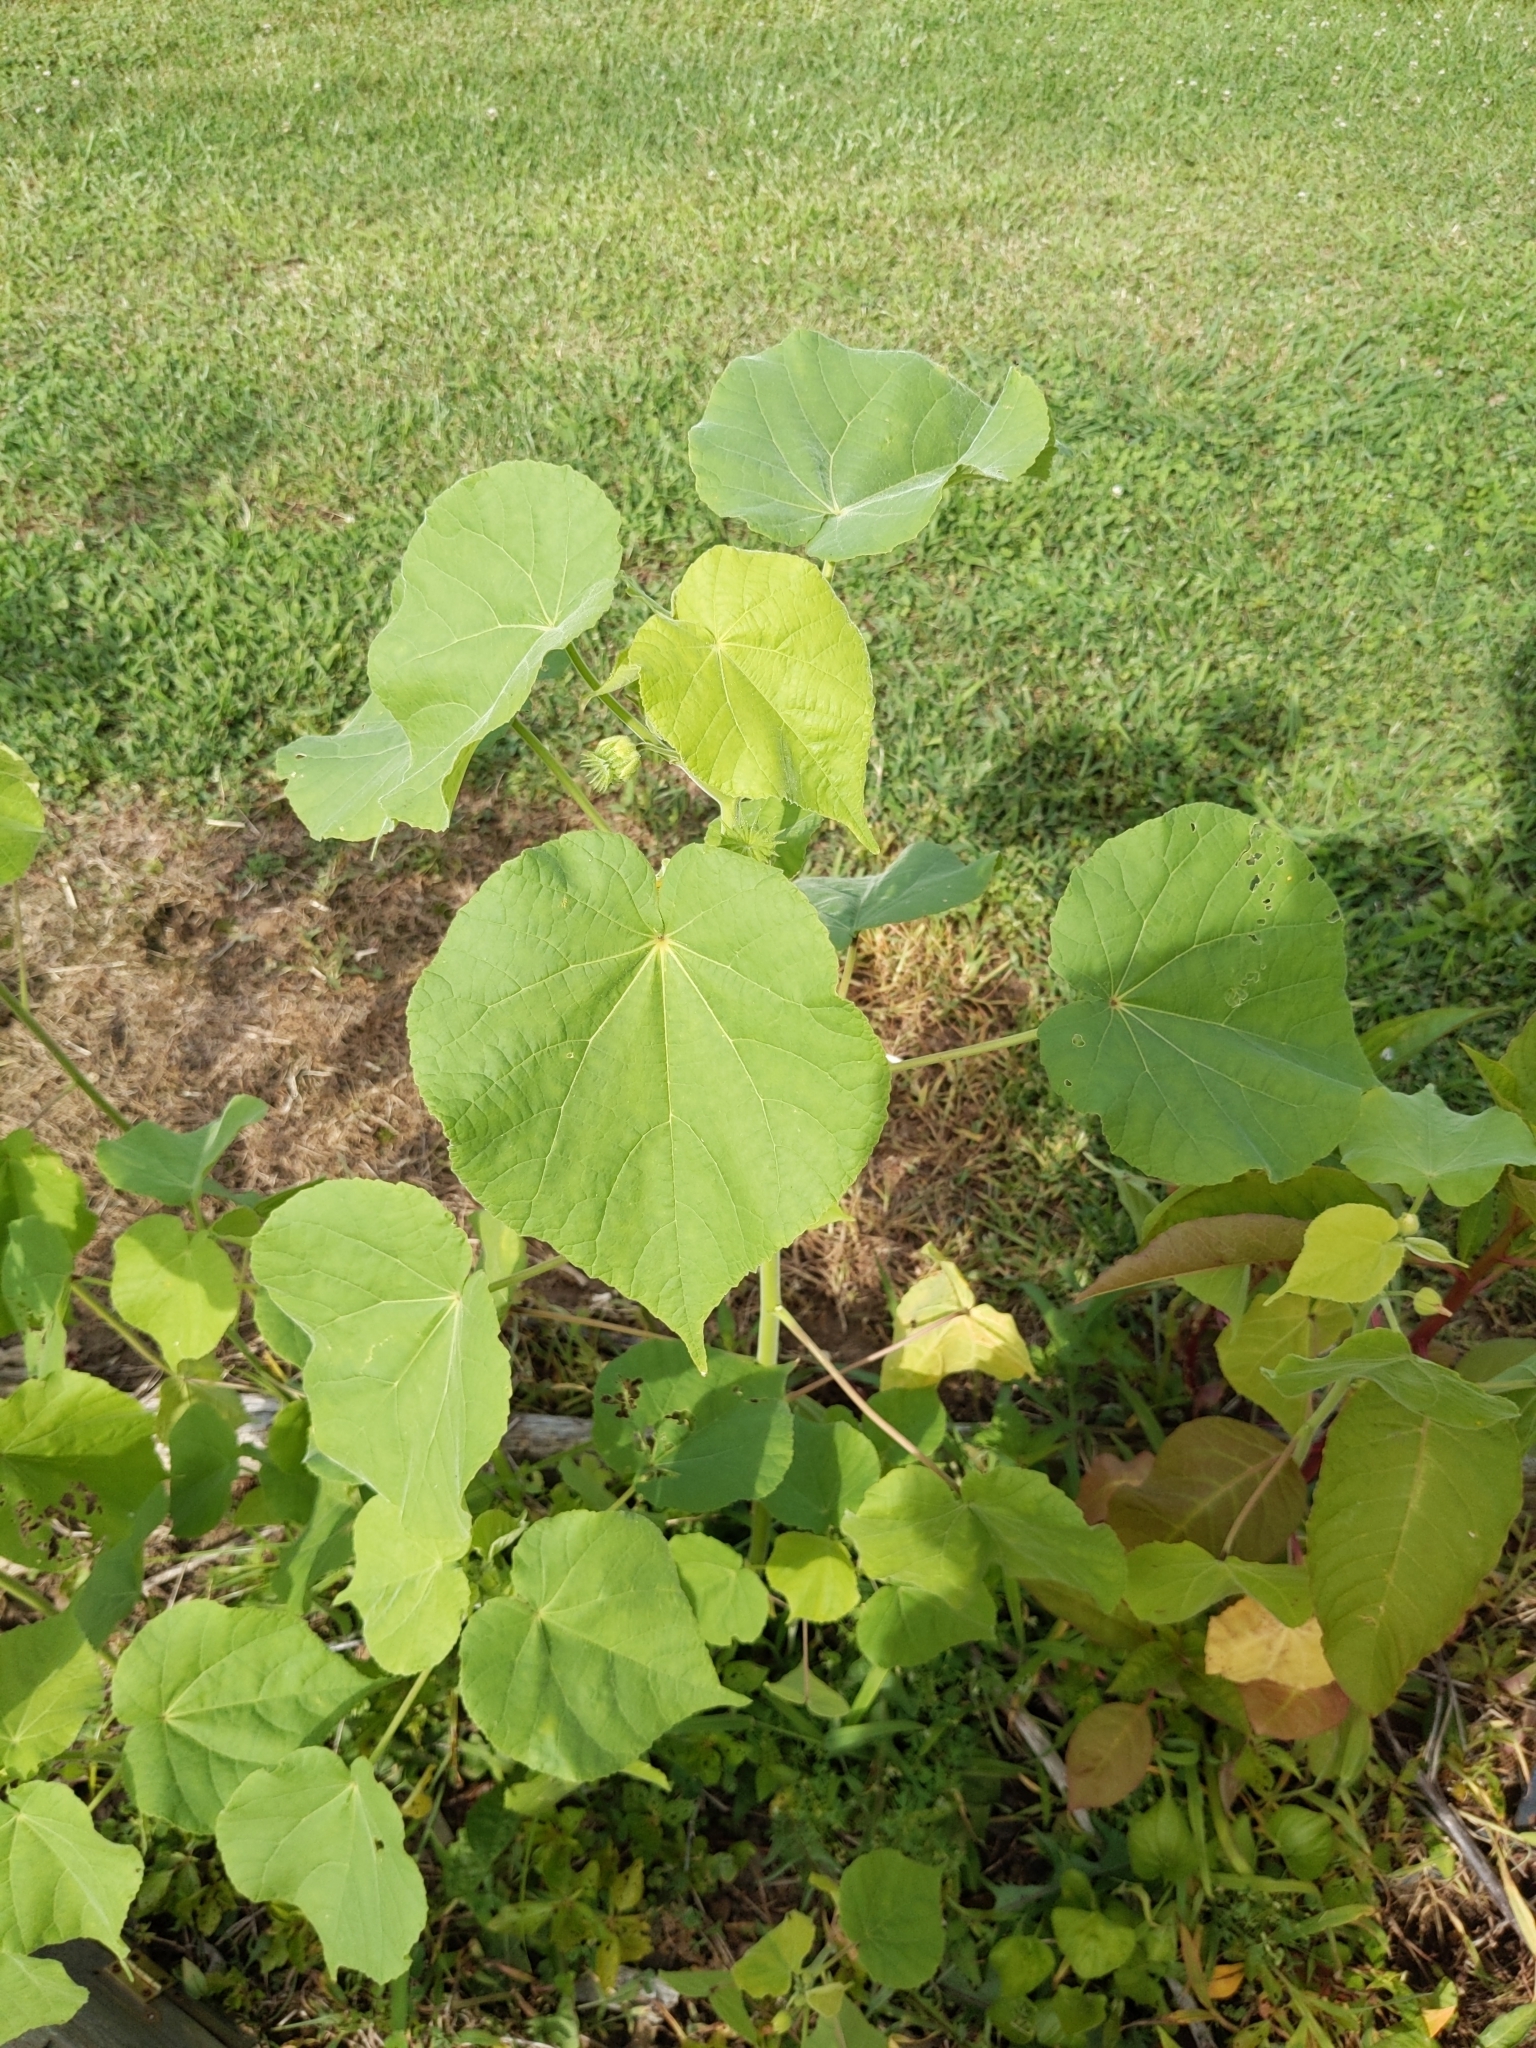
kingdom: Plantae
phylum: Tracheophyta
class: Magnoliopsida
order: Malvales
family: Malvaceae
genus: Abutilon
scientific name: Abutilon theophrasti
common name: Velvetleaf
